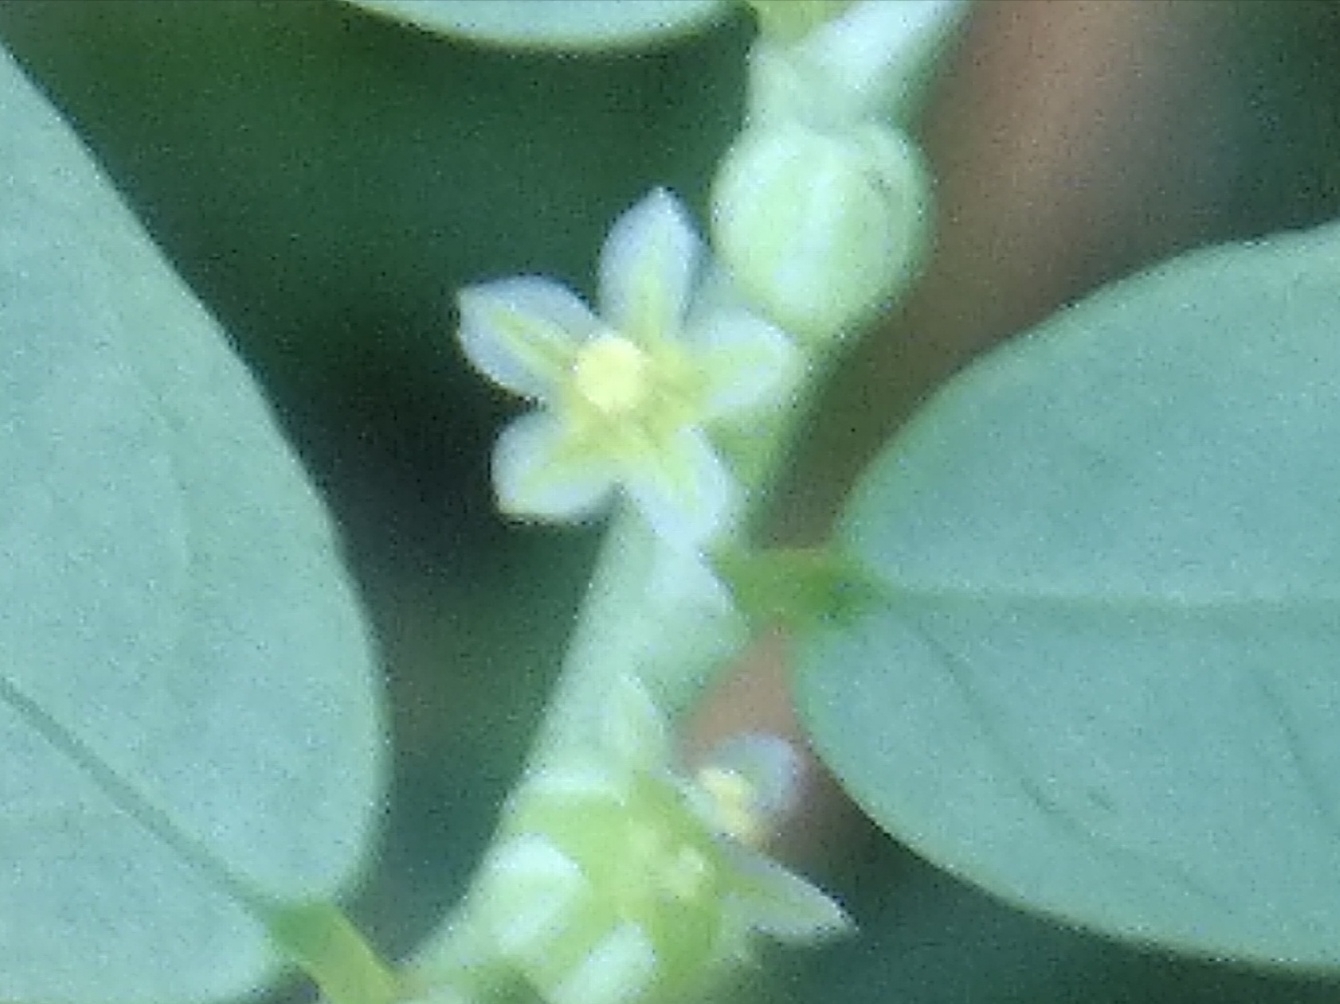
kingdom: Plantae
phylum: Tracheophyta
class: Magnoliopsida
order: Malpighiales
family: Phyllanthaceae
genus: Phyllanthus
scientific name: Phyllanthus niruri
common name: Niruri
